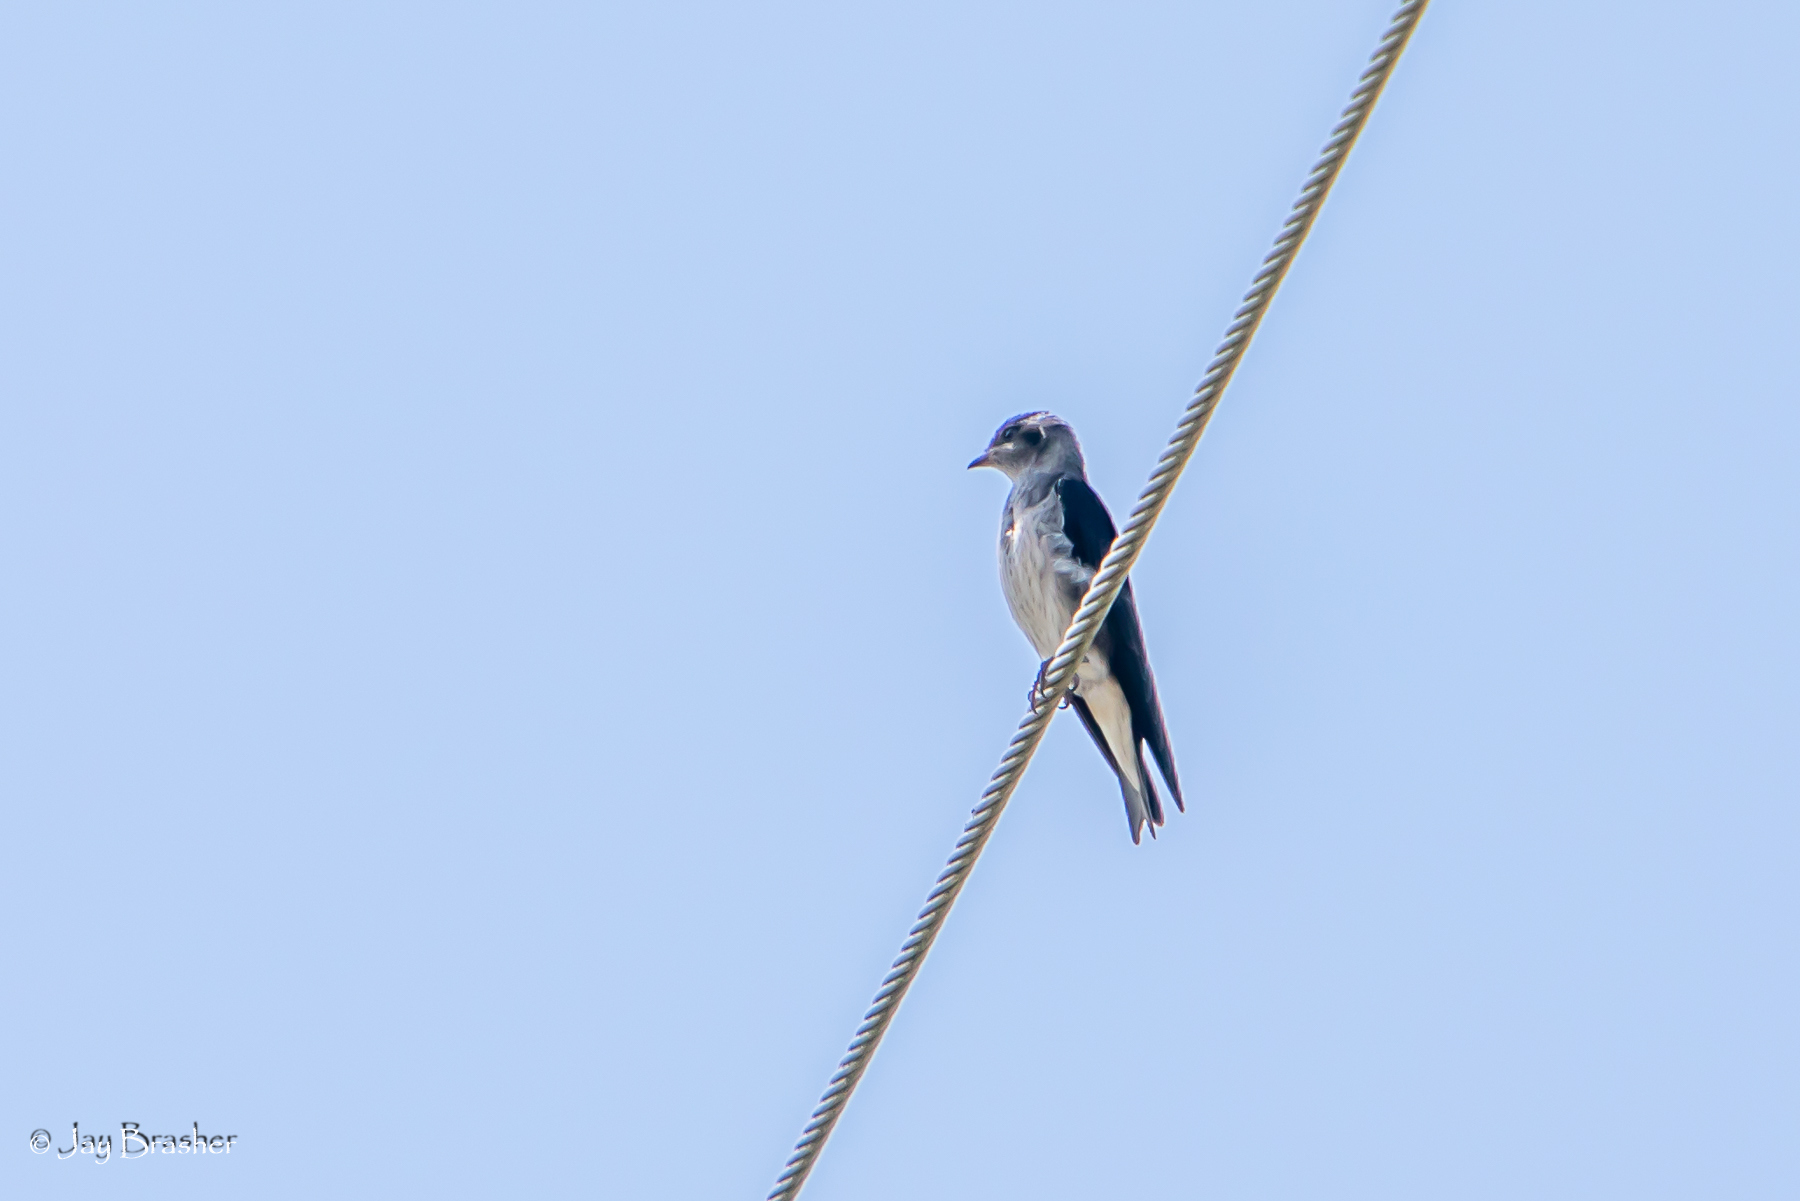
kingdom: Animalia
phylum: Chordata
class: Aves
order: Passeriformes
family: Hirundinidae
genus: Progne
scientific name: Progne subis
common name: Purple martin
